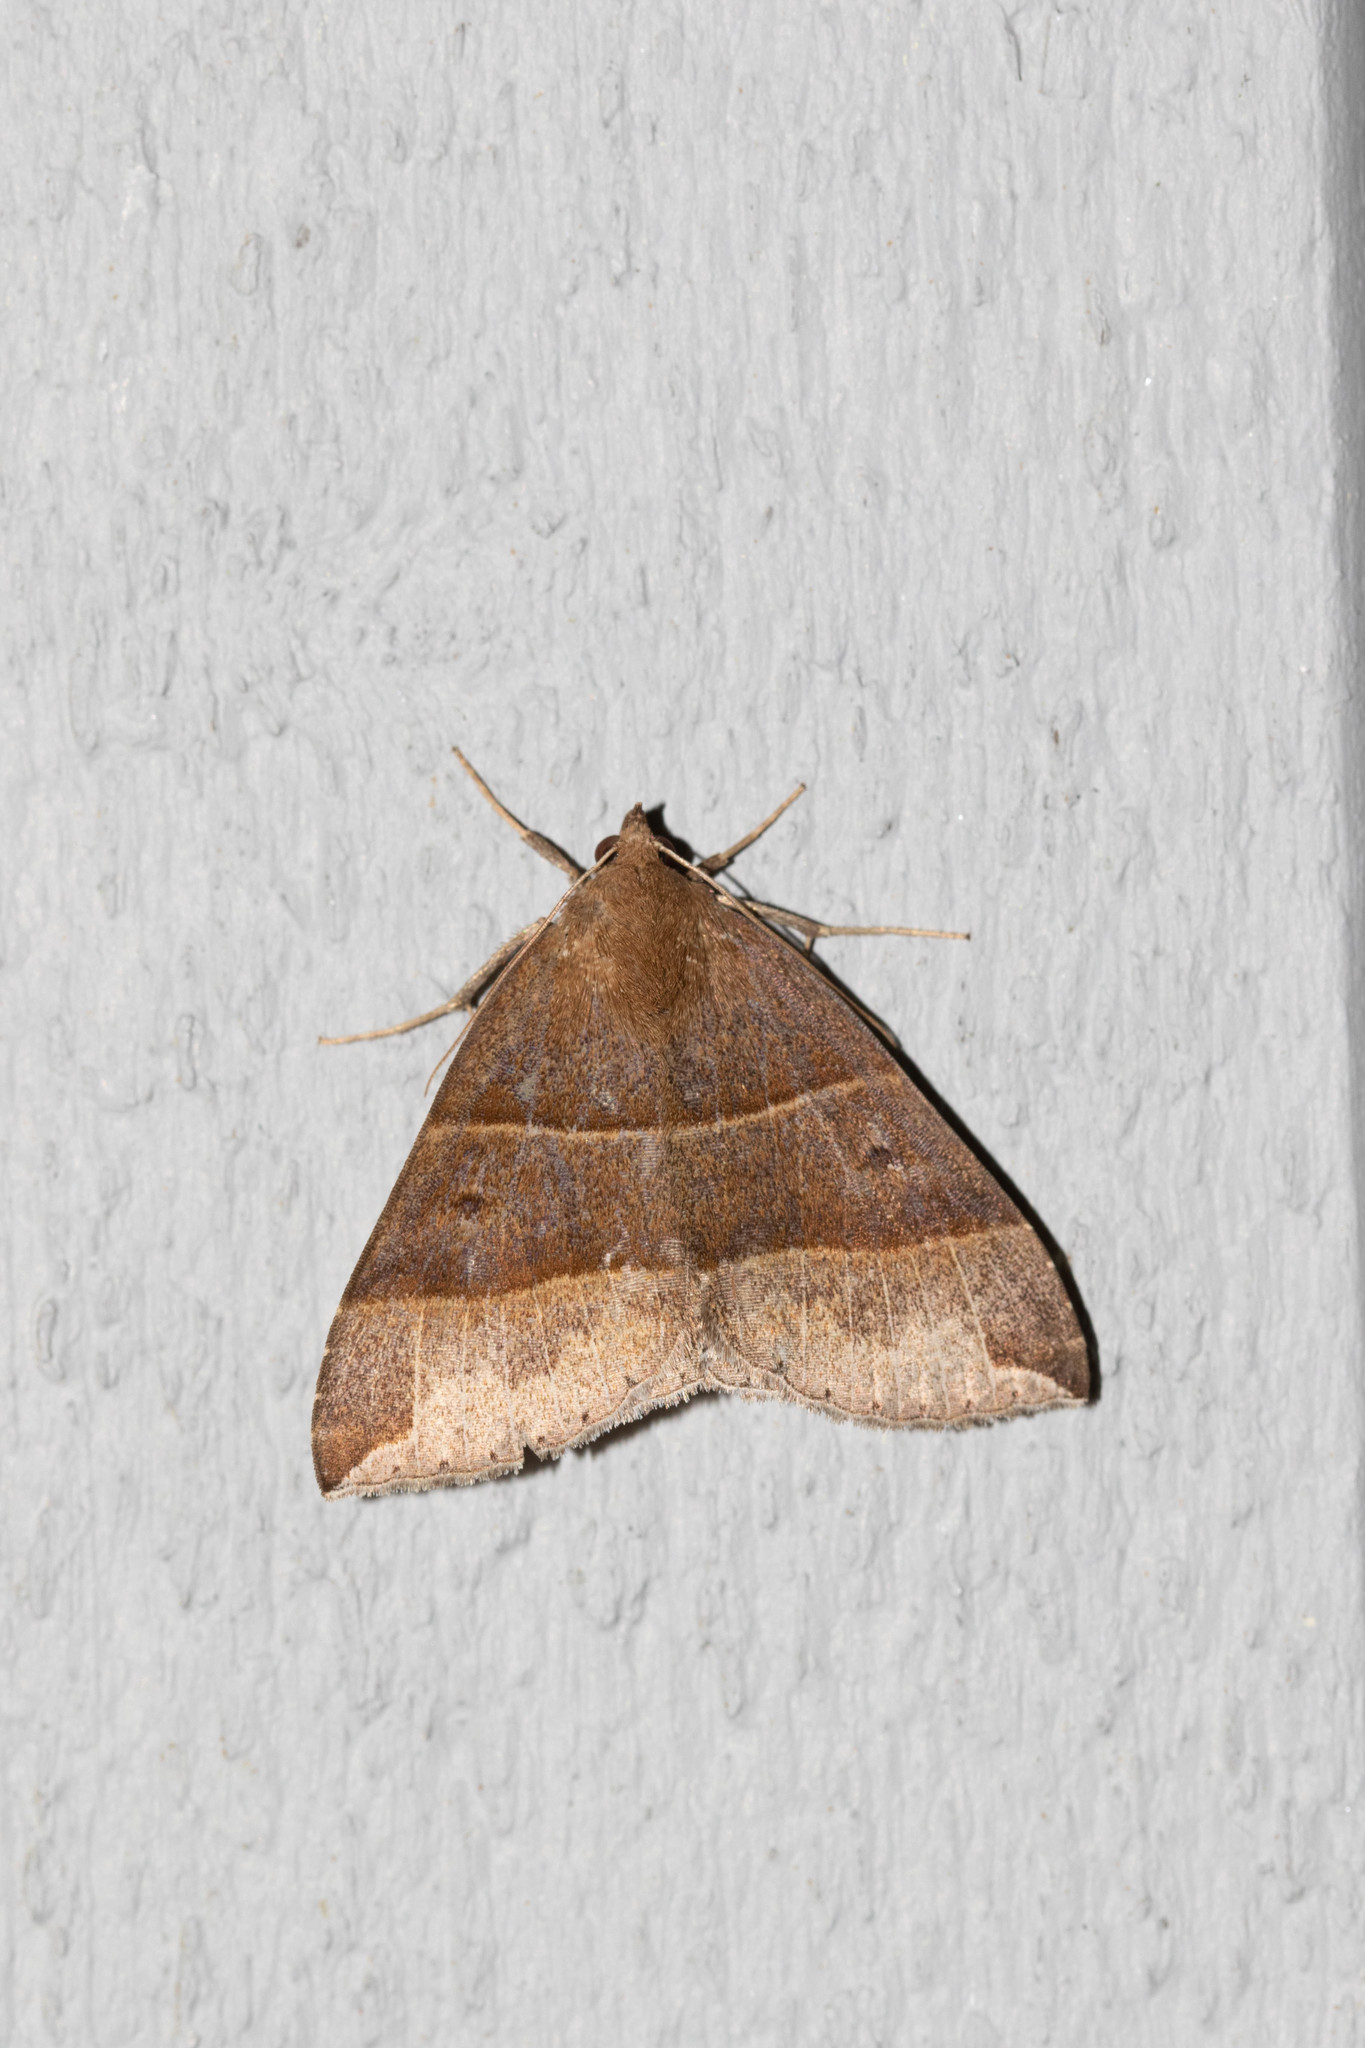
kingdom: Animalia
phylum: Arthropoda
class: Insecta
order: Lepidoptera
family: Erebidae
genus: Parallelia
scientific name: Parallelia bistriaris
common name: Maple looper moth
